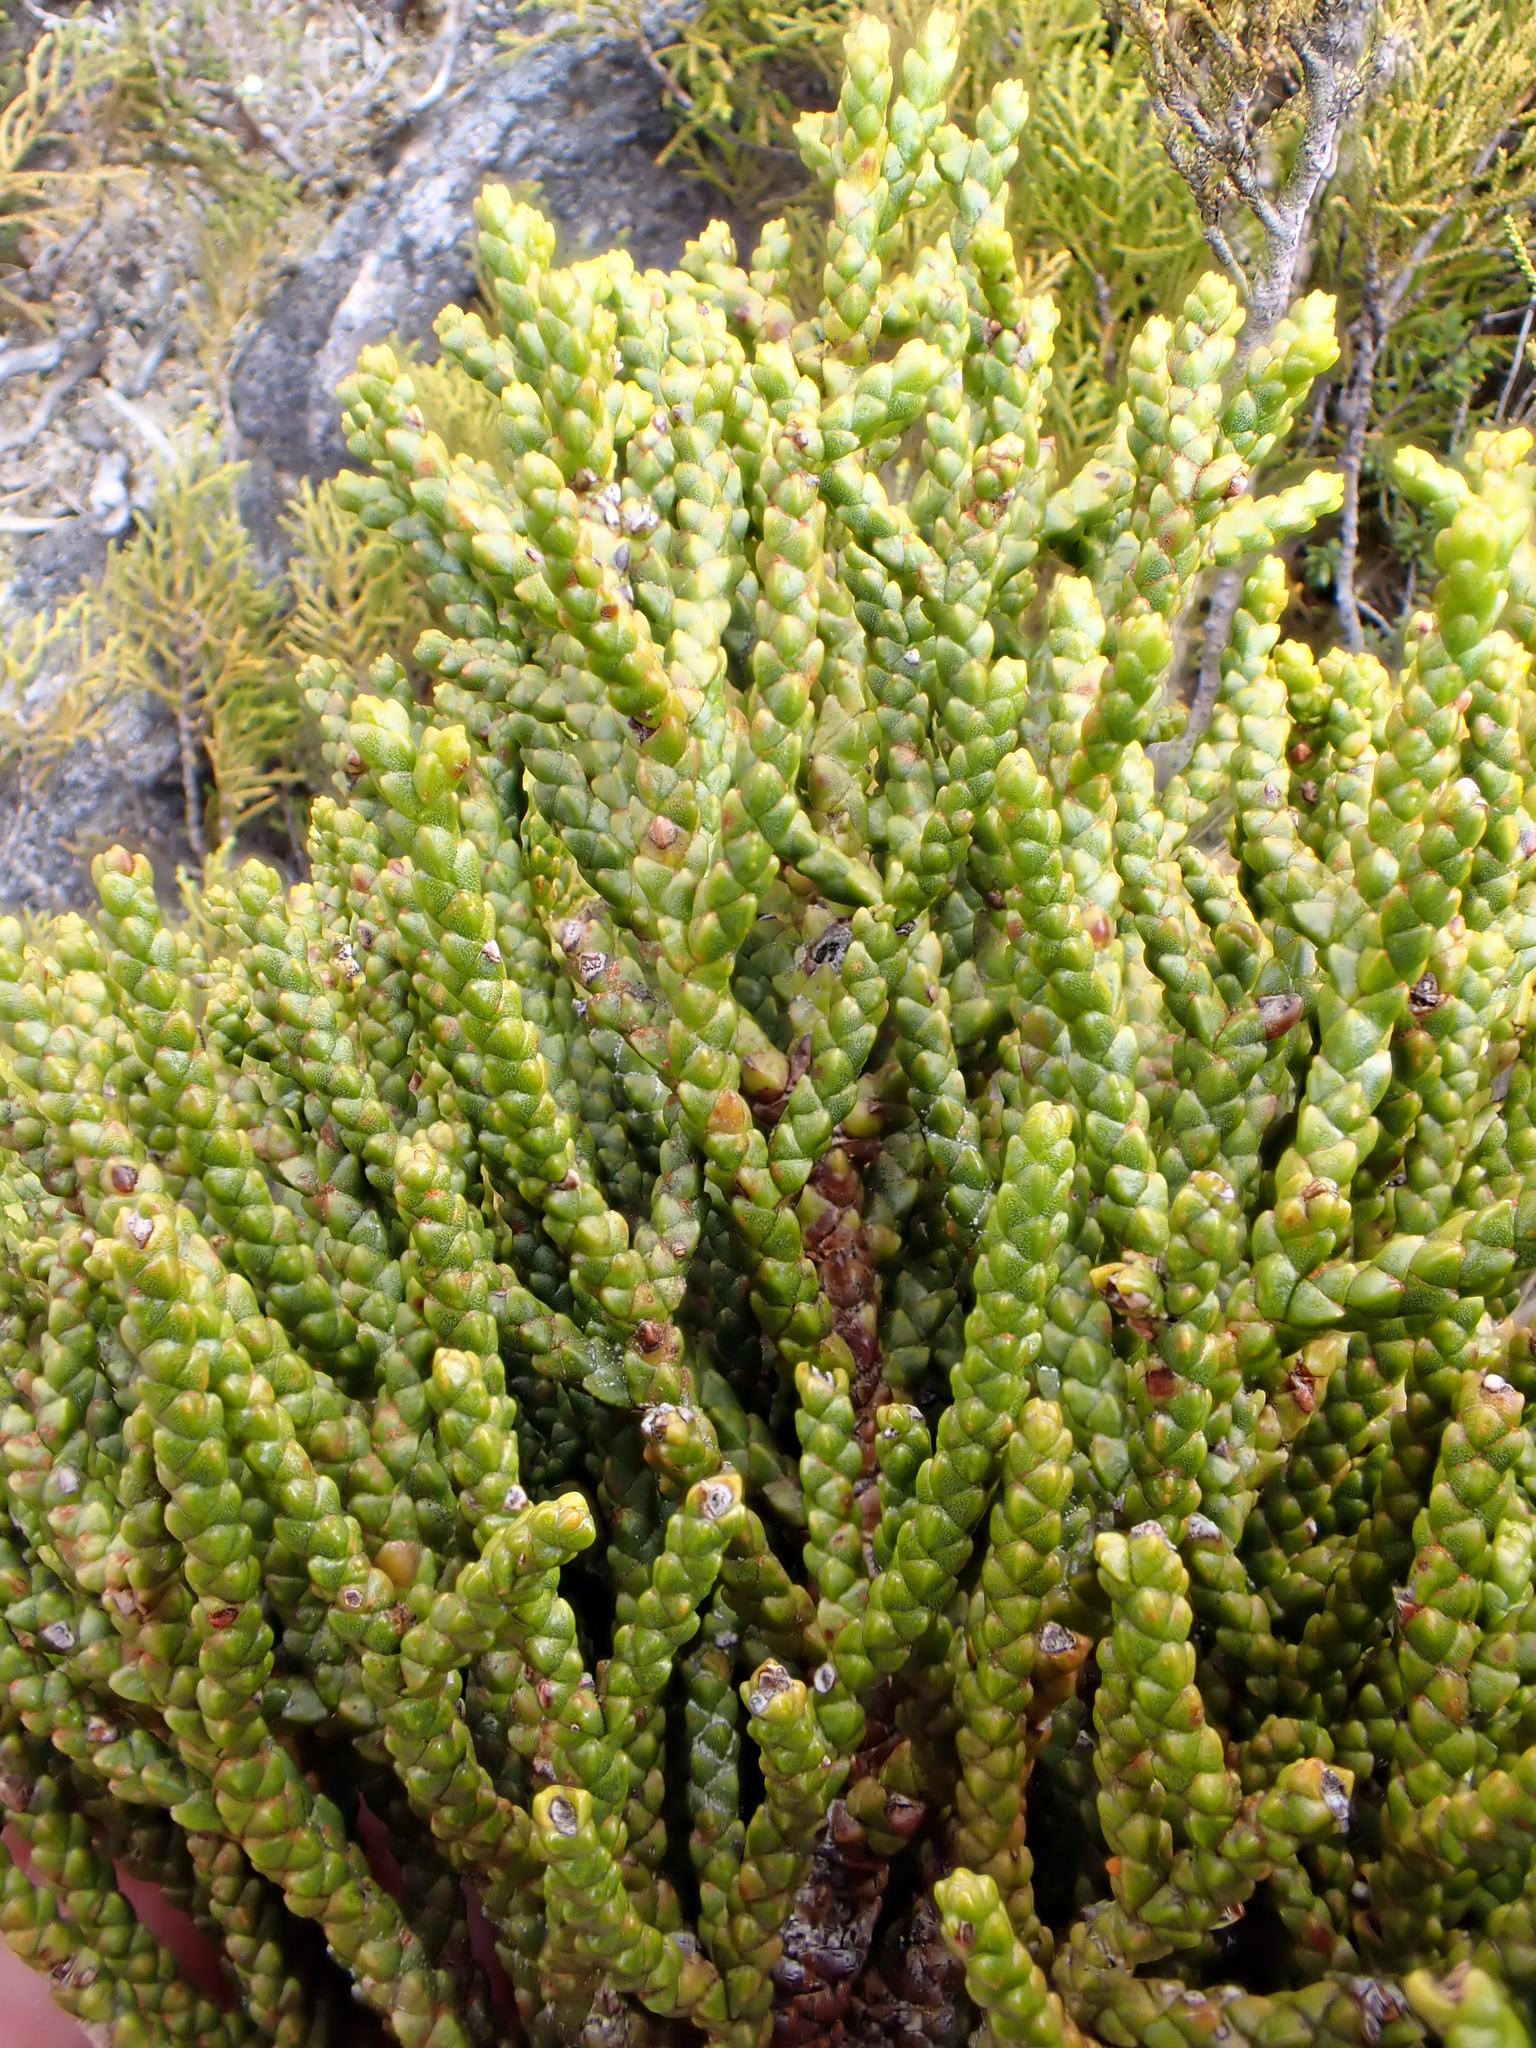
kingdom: Plantae
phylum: Tracheophyta
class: Pinopsida
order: Pinales
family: Podocarpaceae
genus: Halocarpus
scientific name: Halocarpus biformis
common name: Alpine tarwood
